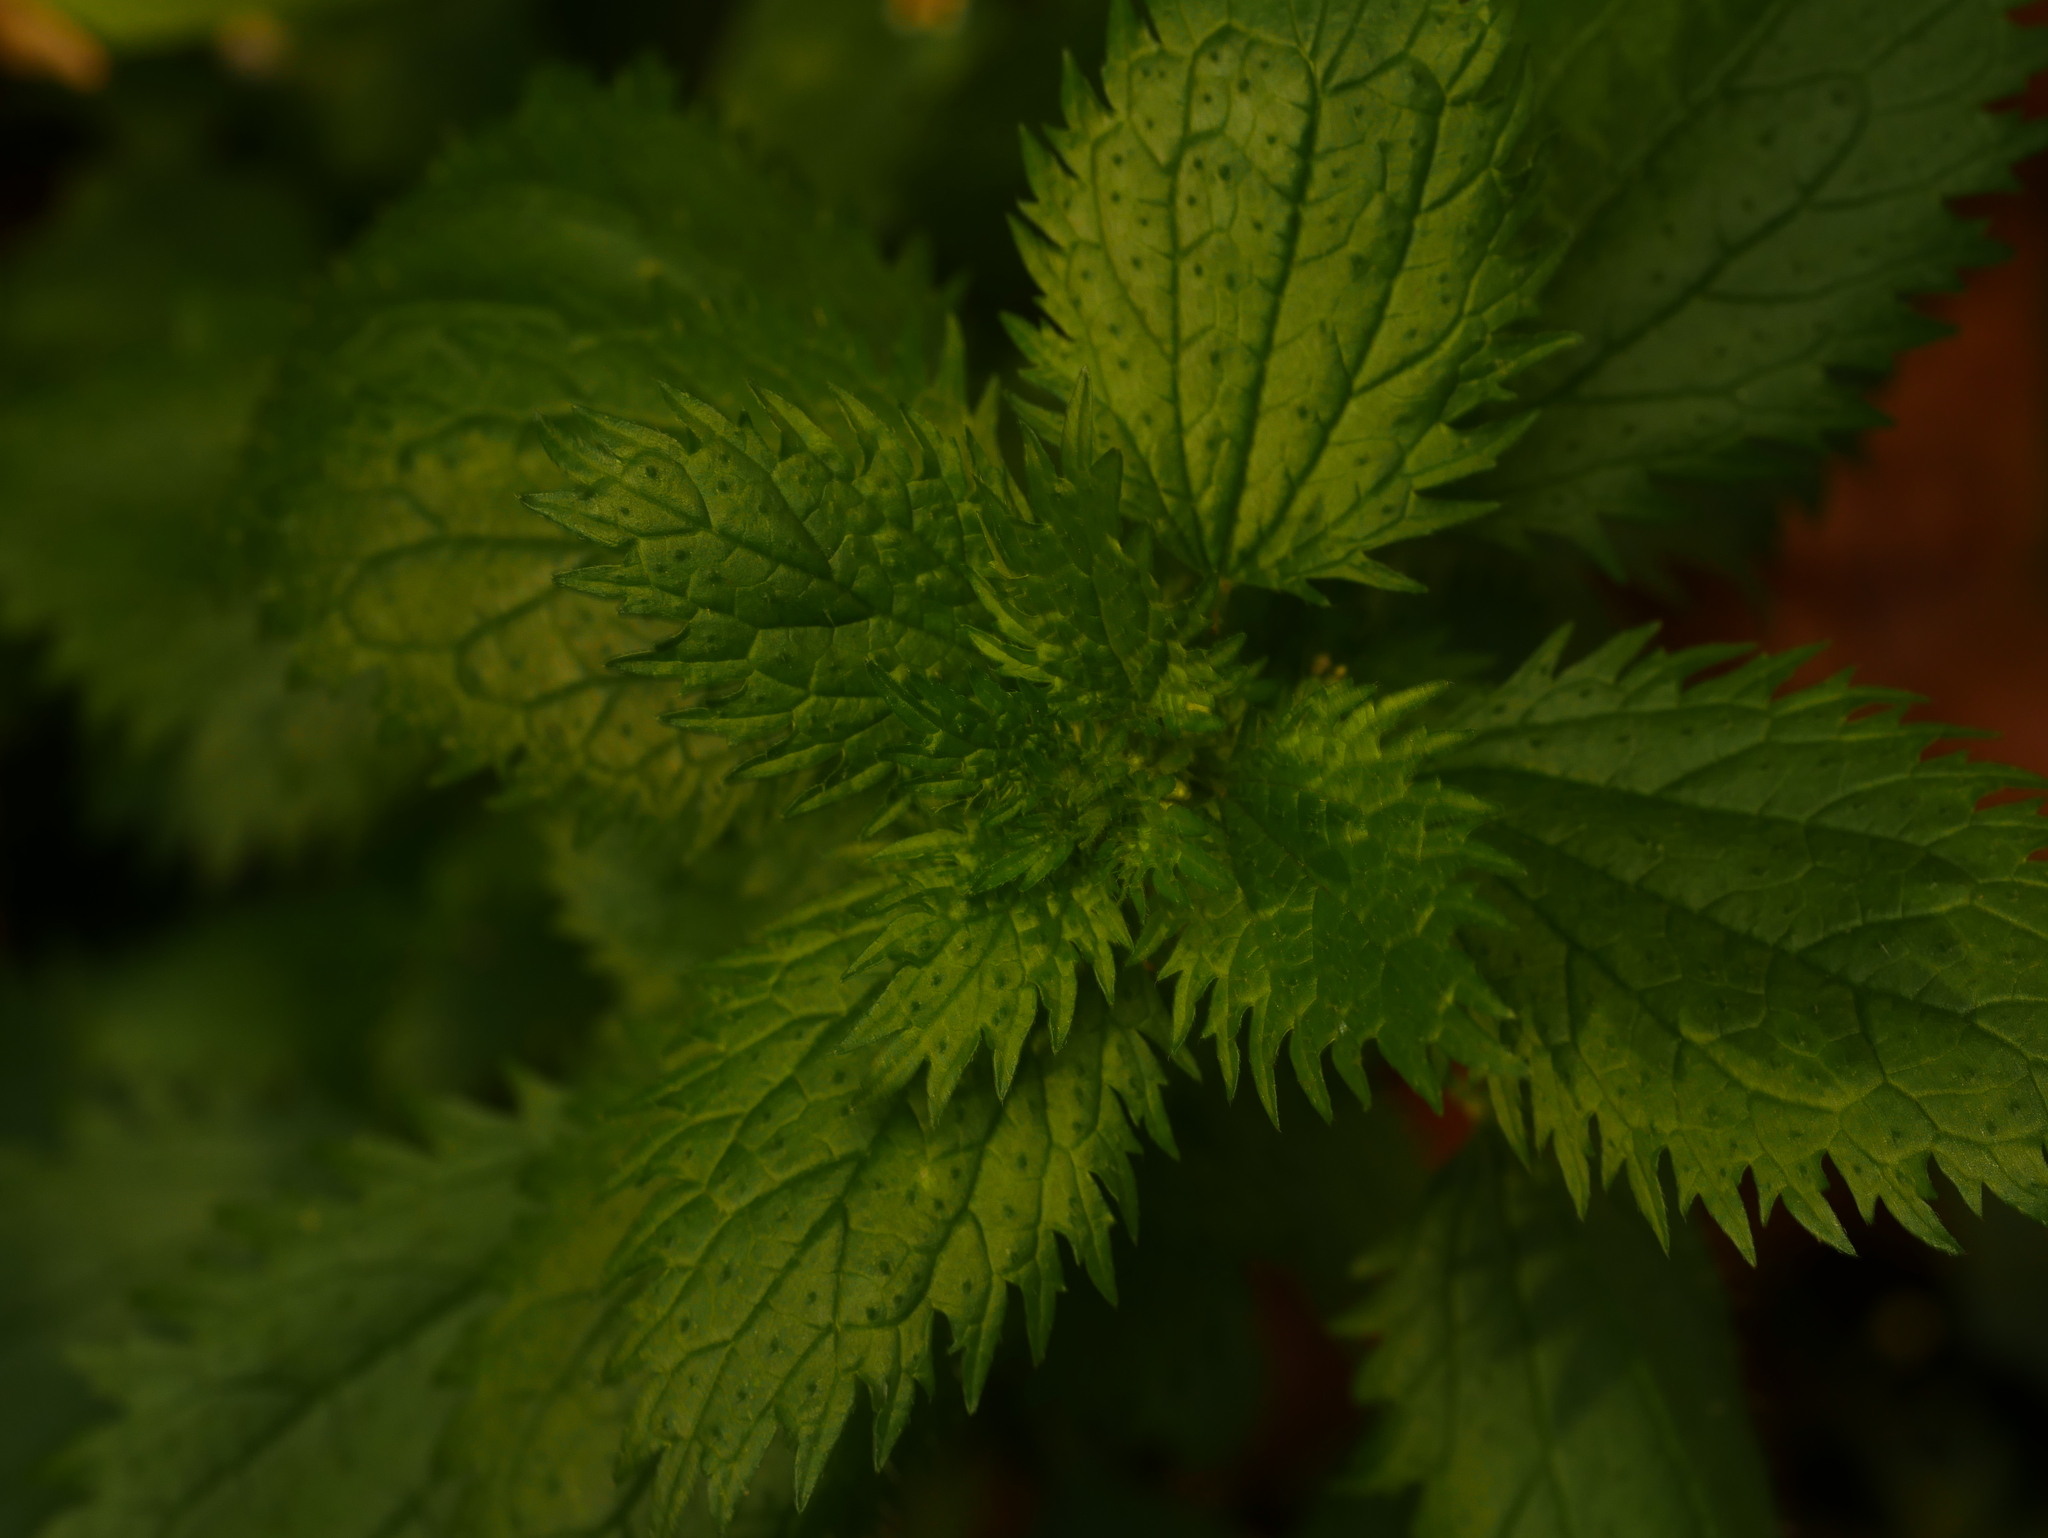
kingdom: Plantae
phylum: Tracheophyta
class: Magnoliopsida
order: Rosales
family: Urticaceae
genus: Urtica
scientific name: Urtica urens
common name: Dwarf nettle
